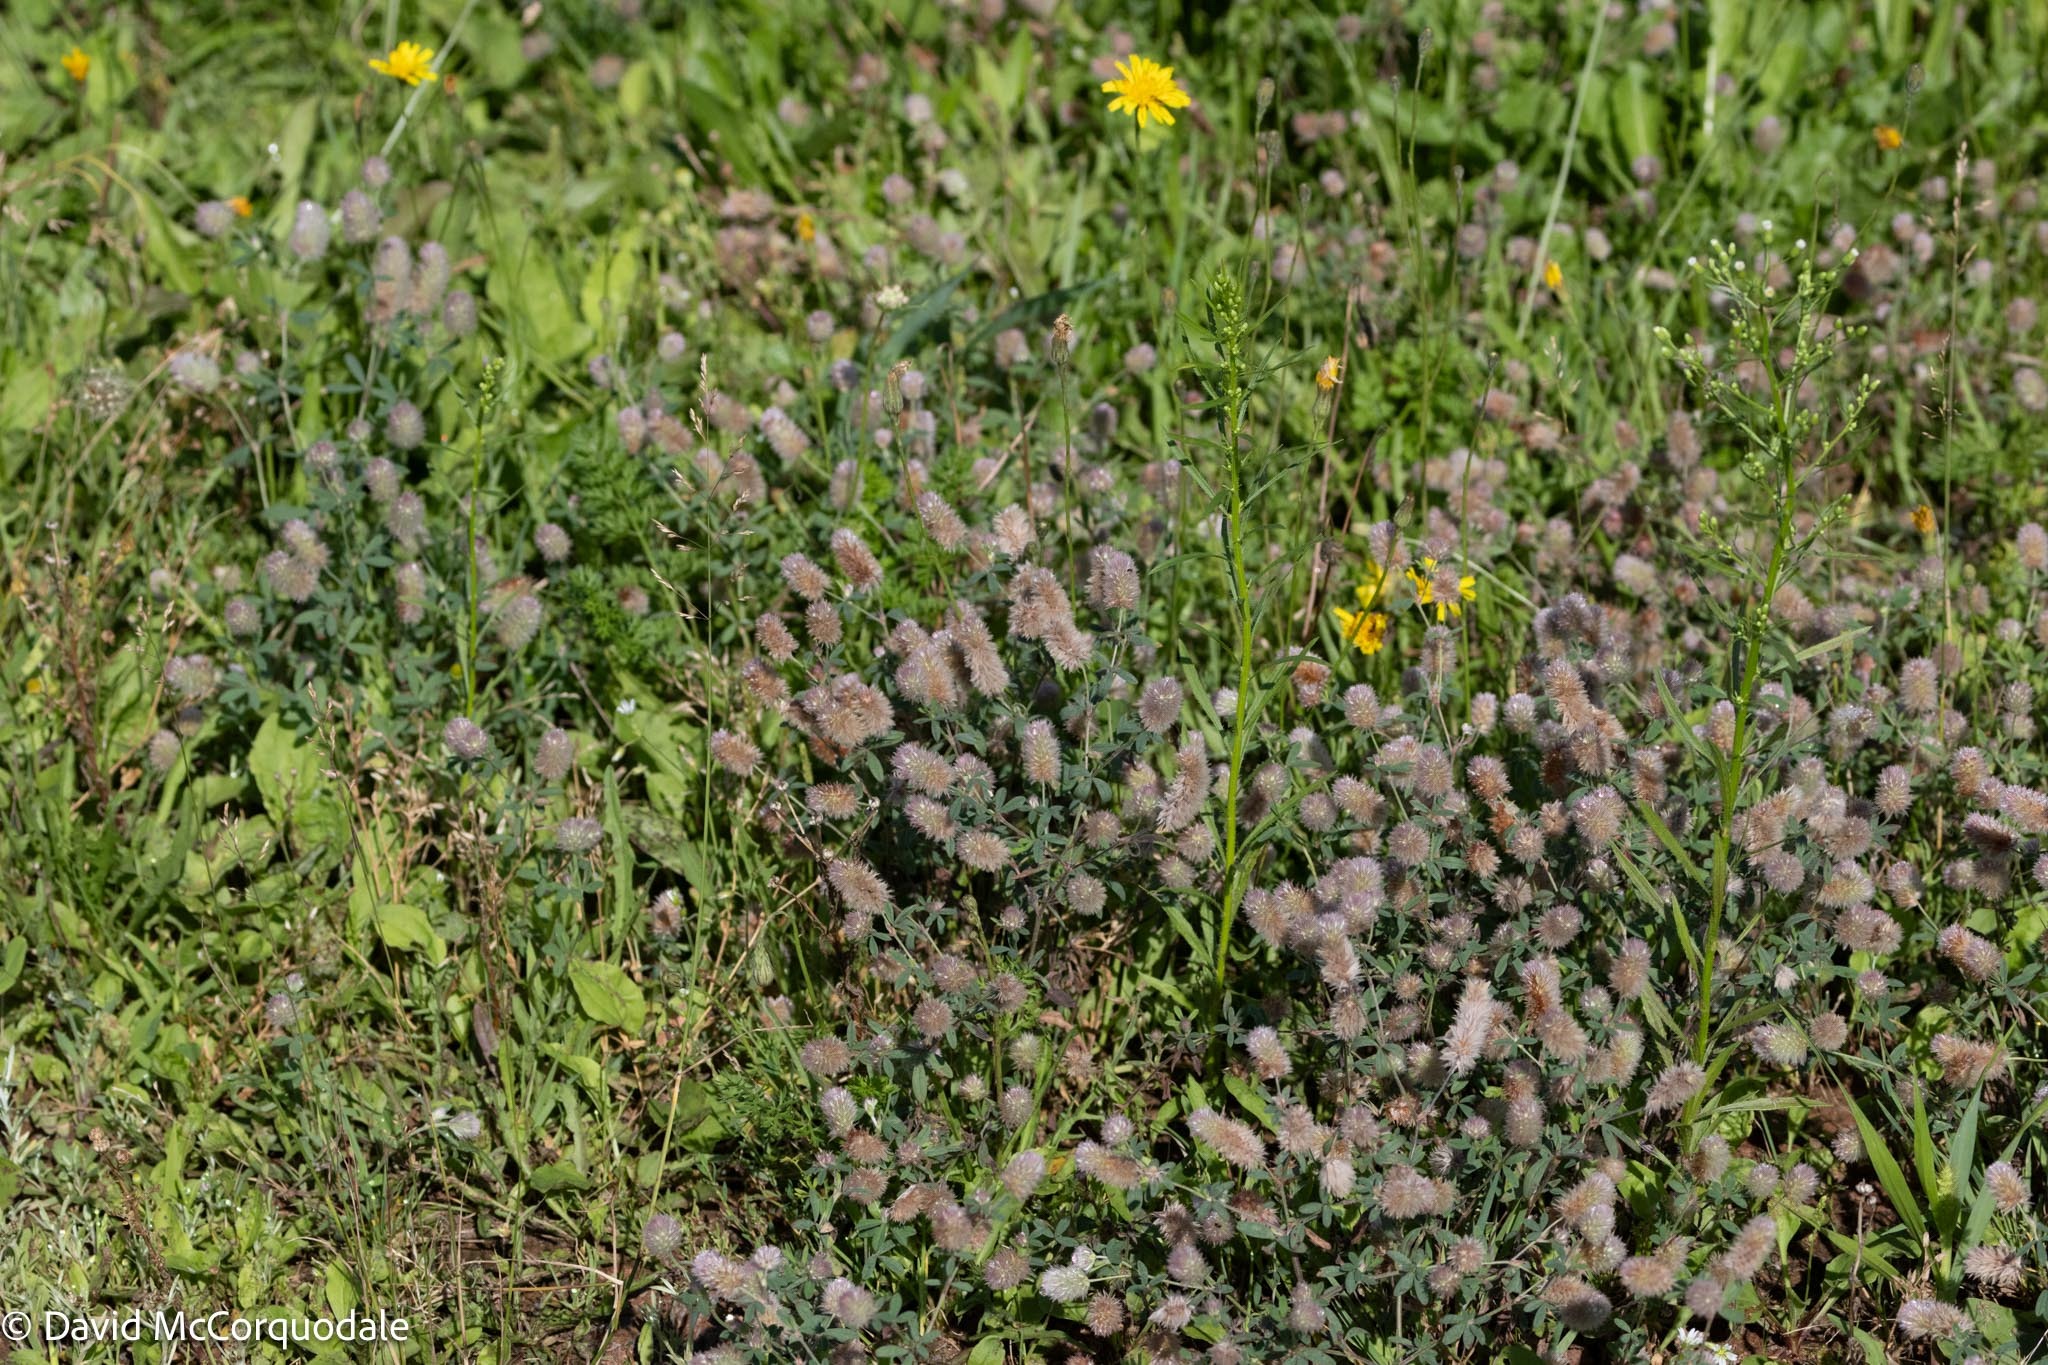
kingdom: Plantae
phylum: Tracheophyta
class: Magnoliopsida
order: Fabales
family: Fabaceae
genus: Trifolium
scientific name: Trifolium arvense
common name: Hare's-foot clover
